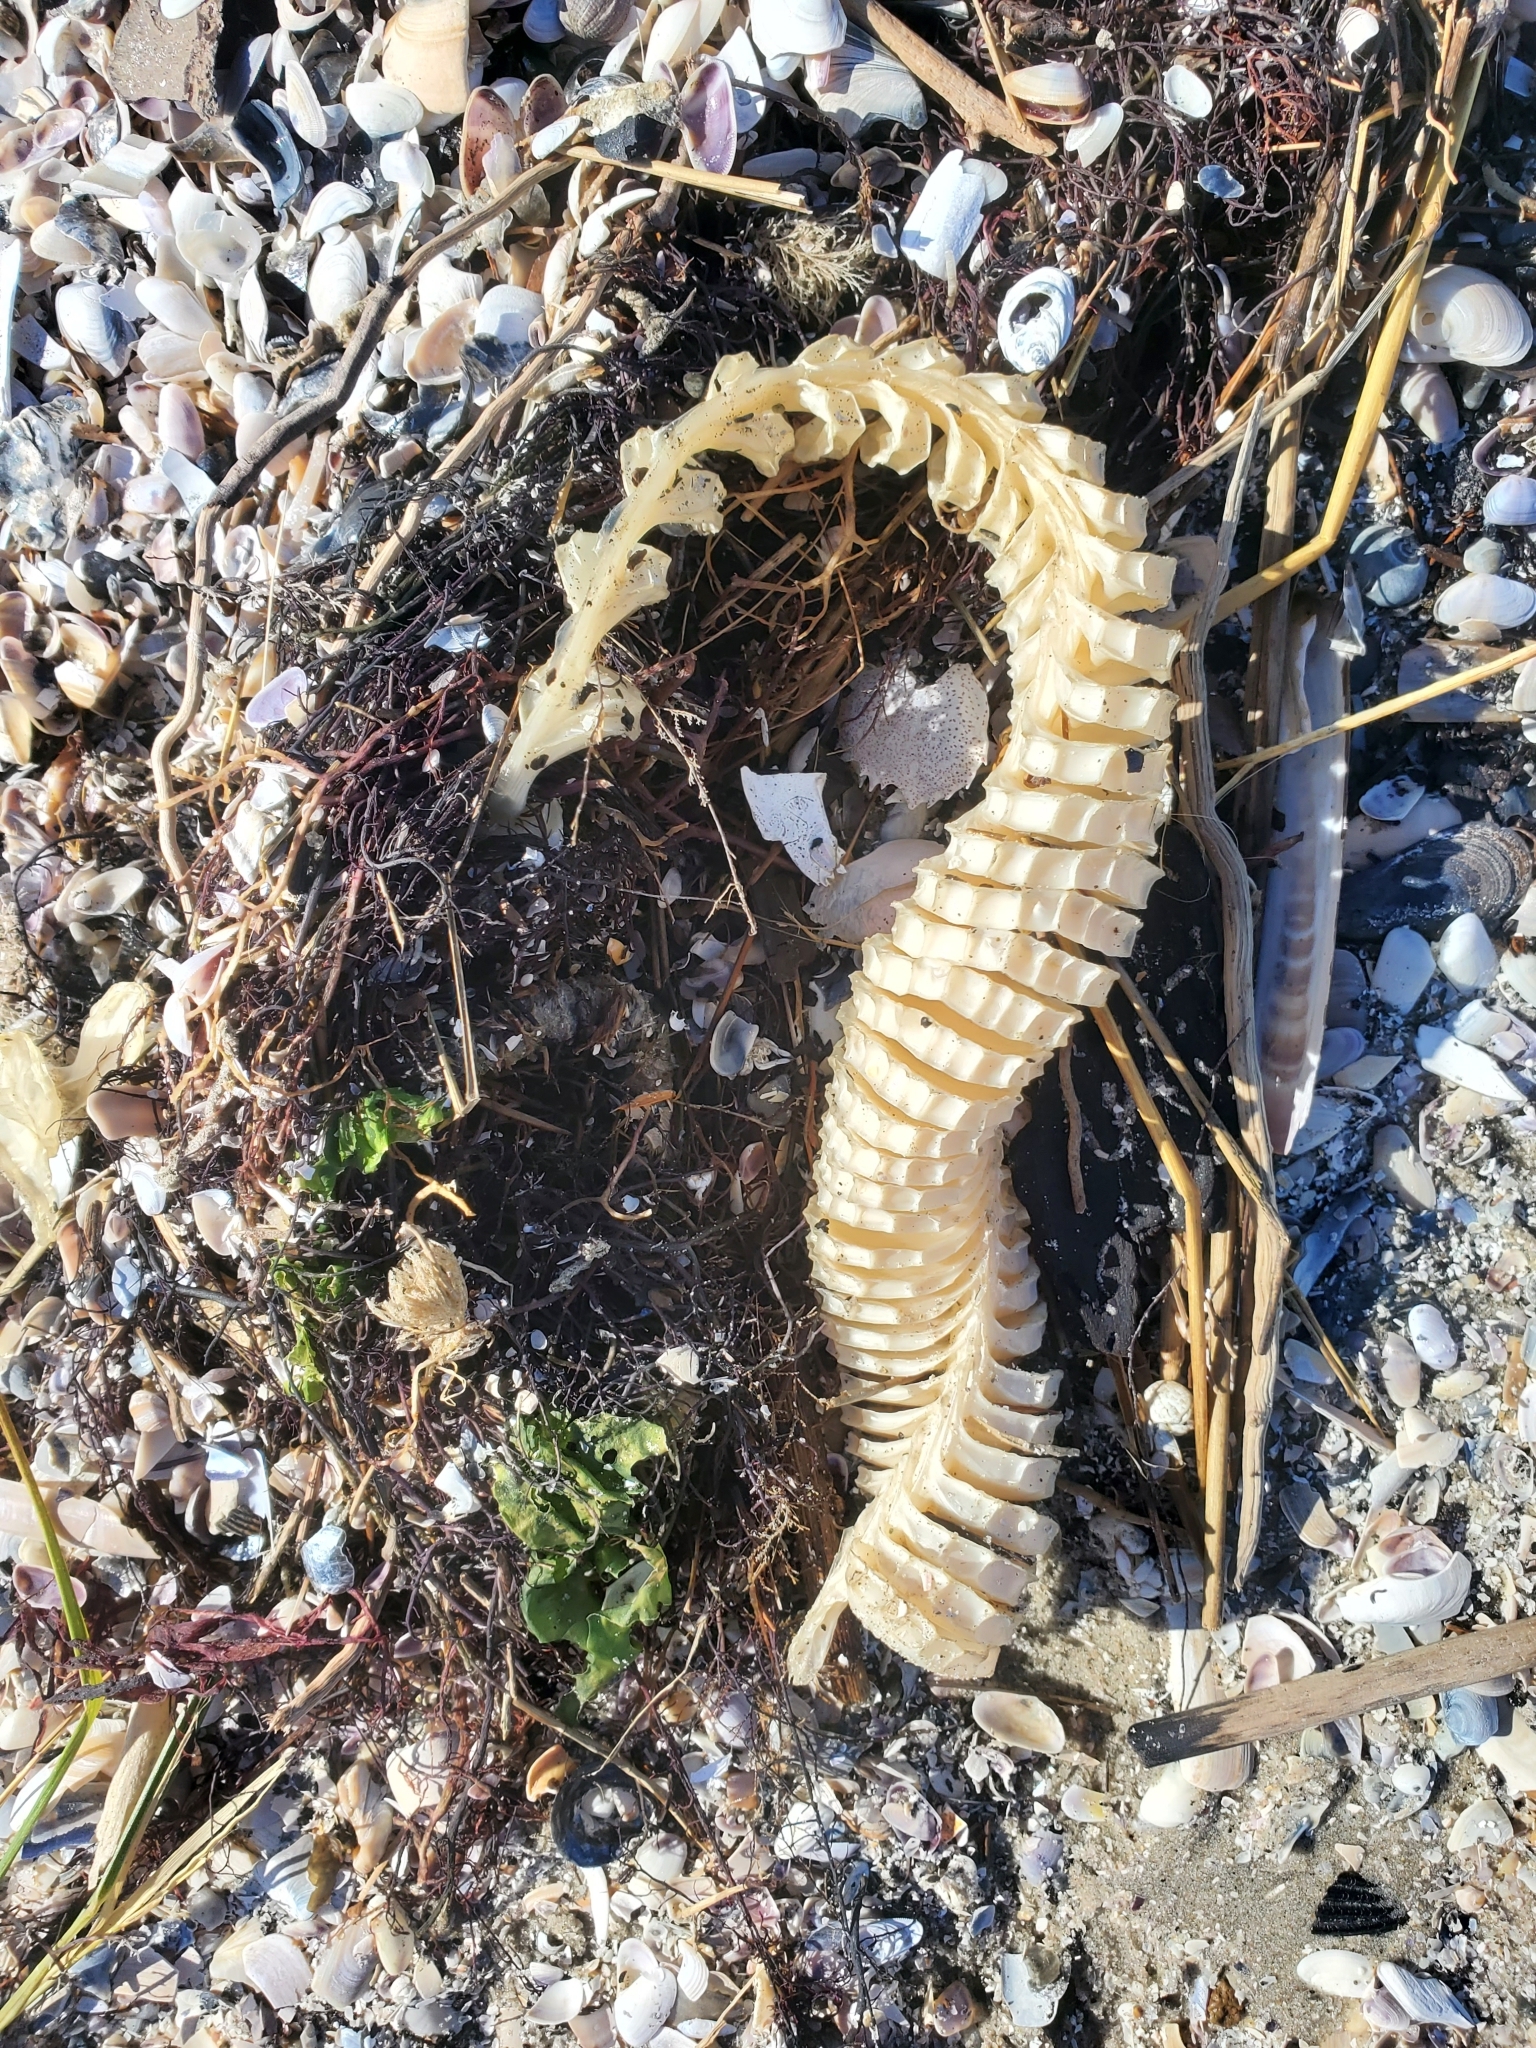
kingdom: Animalia
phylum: Mollusca
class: Gastropoda
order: Neogastropoda
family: Busyconidae
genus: Busycon
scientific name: Busycon carica
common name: Knobbed whelk
